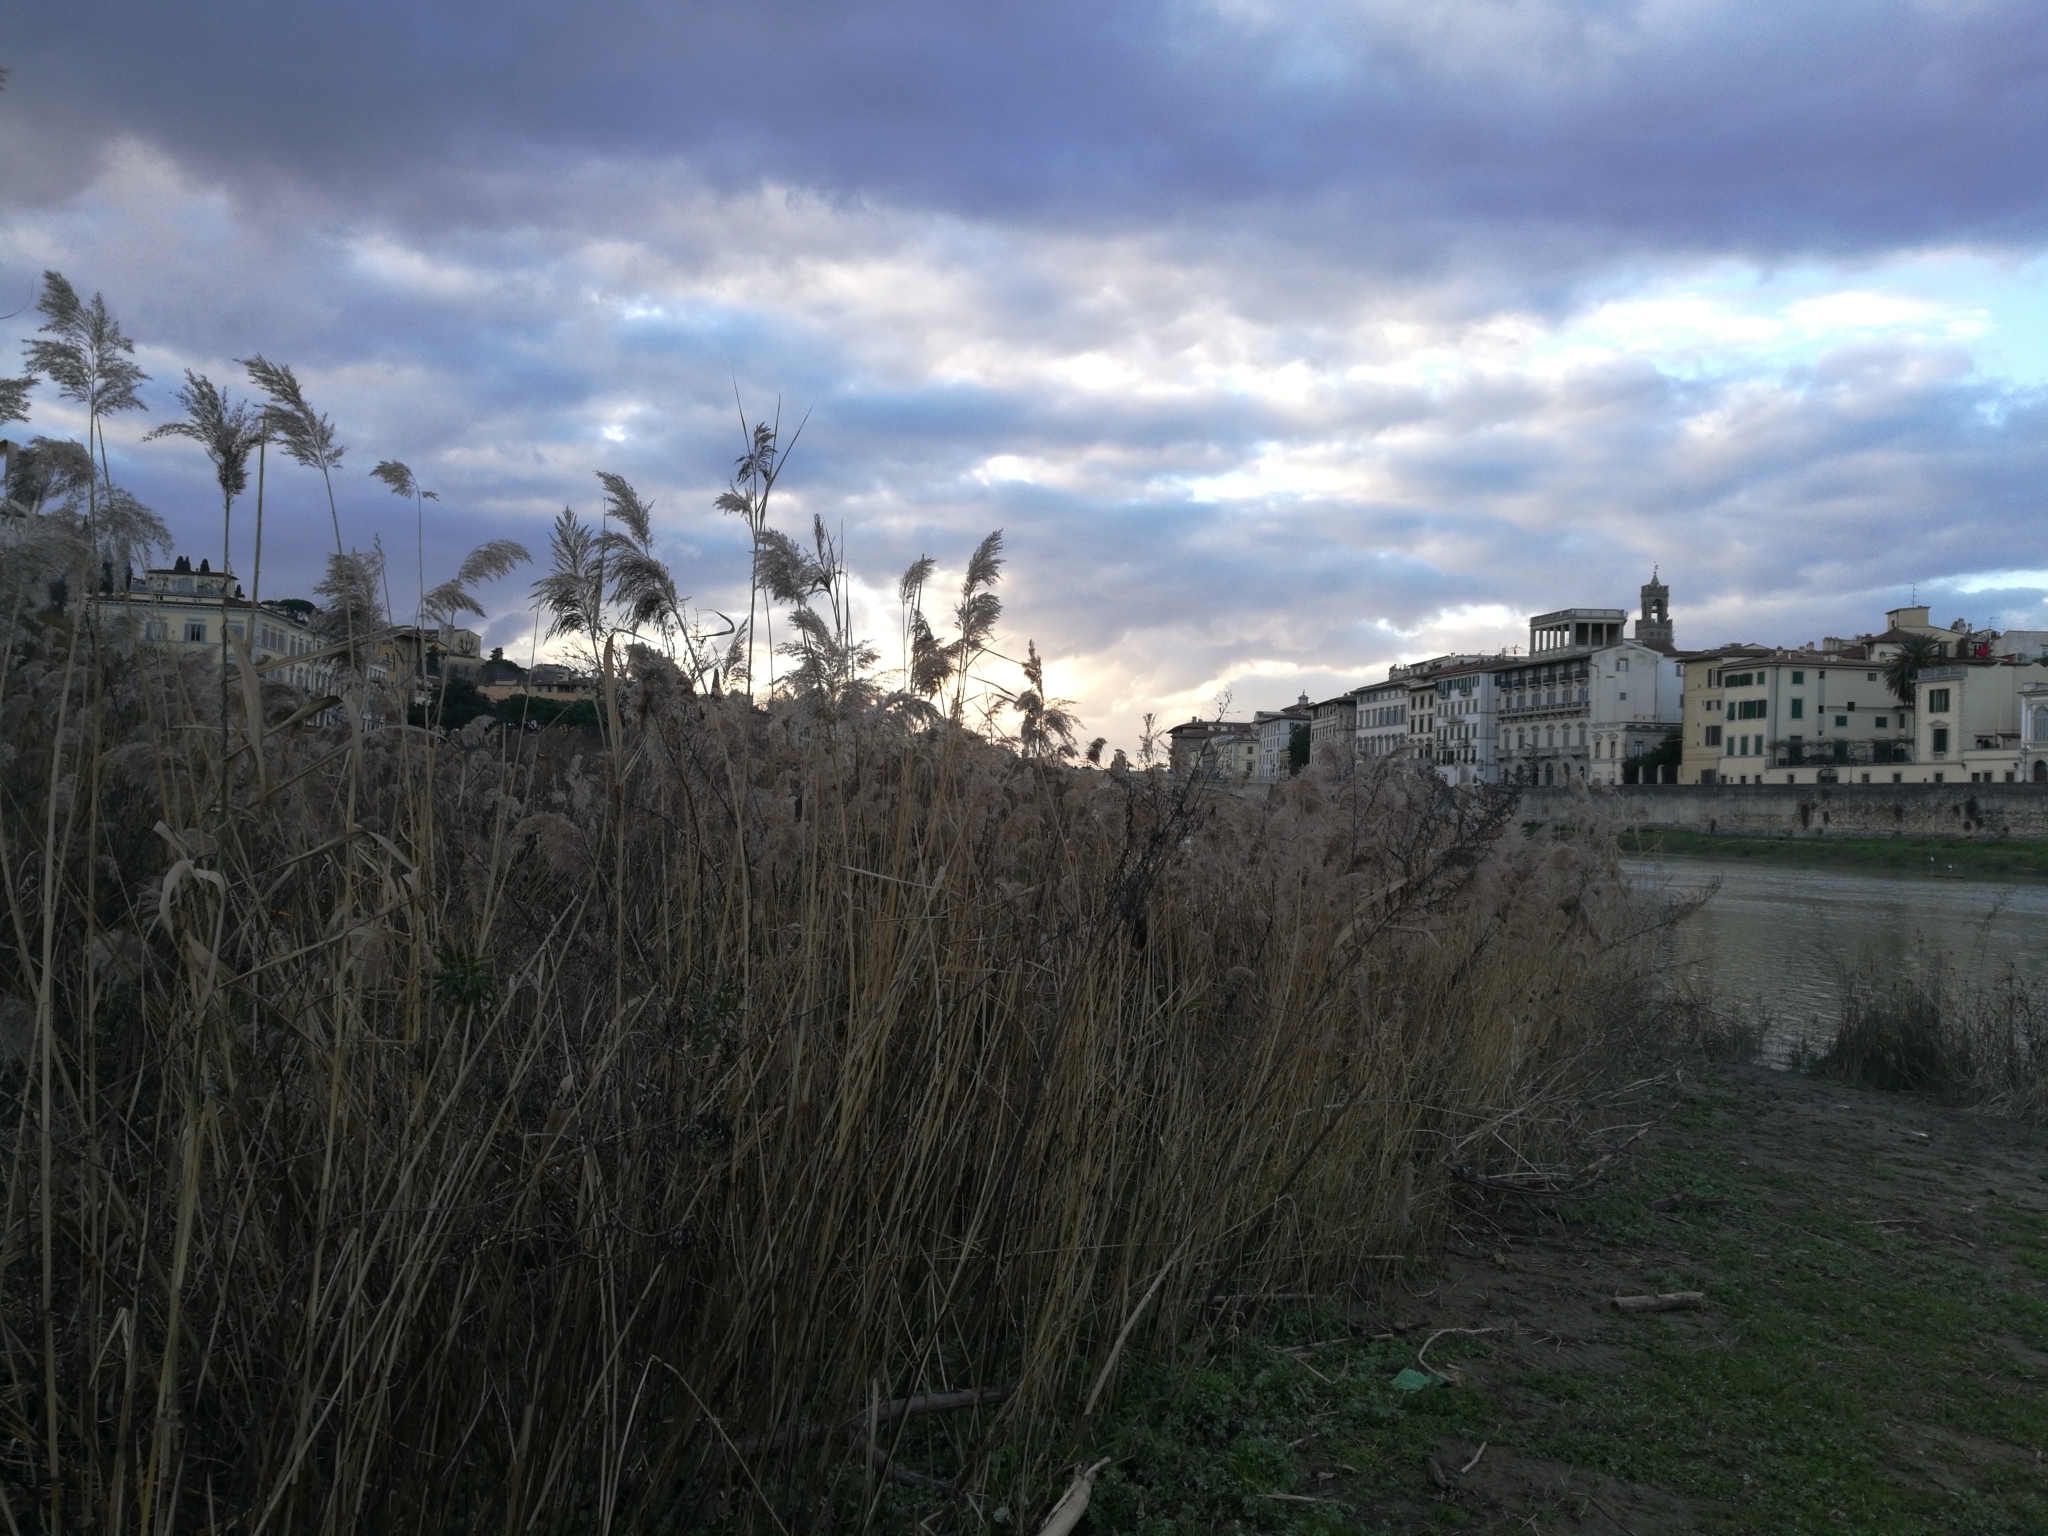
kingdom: Plantae
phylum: Tracheophyta
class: Liliopsida
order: Poales
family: Poaceae
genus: Phragmites
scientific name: Phragmites australis
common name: Common reed
